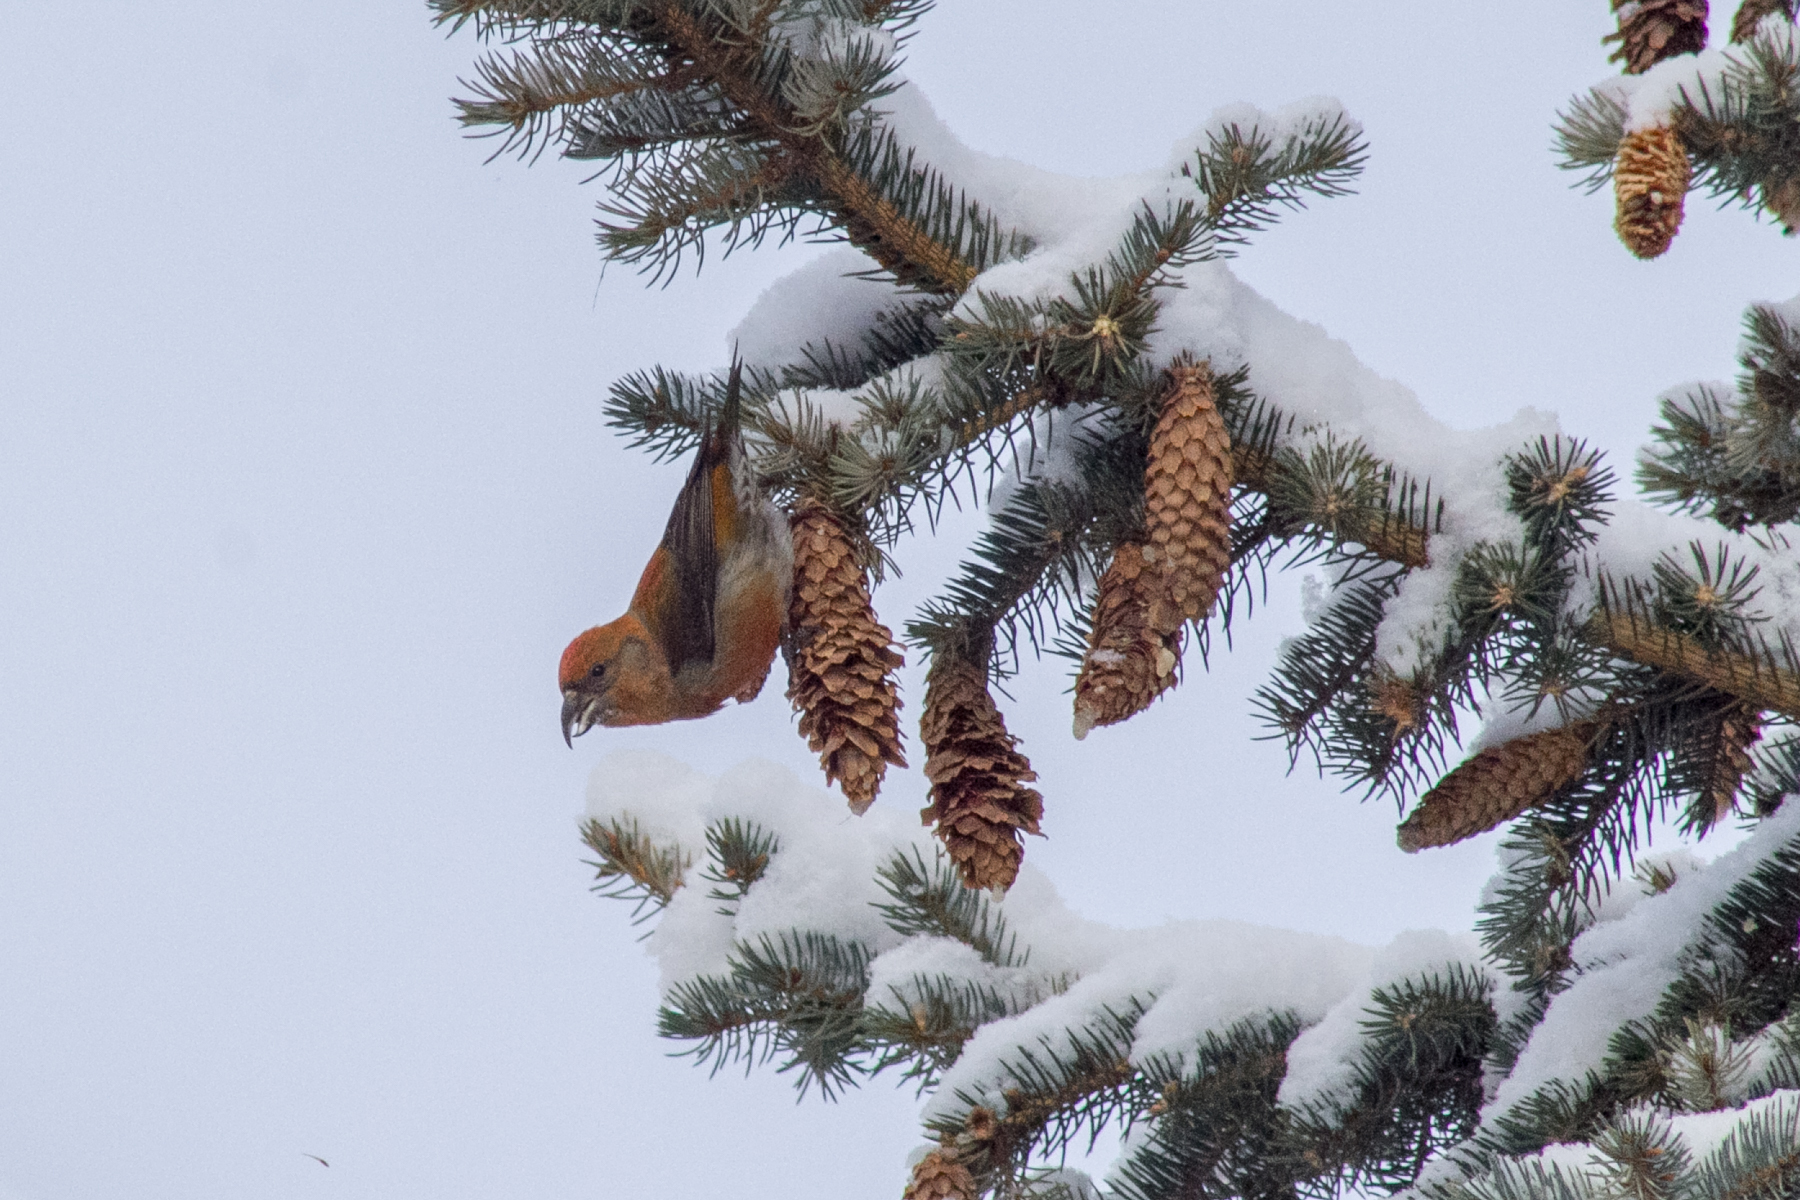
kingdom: Animalia
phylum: Chordata
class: Aves
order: Passeriformes
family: Fringillidae
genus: Loxia
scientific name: Loxia curvirostra
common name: Red crossbill
